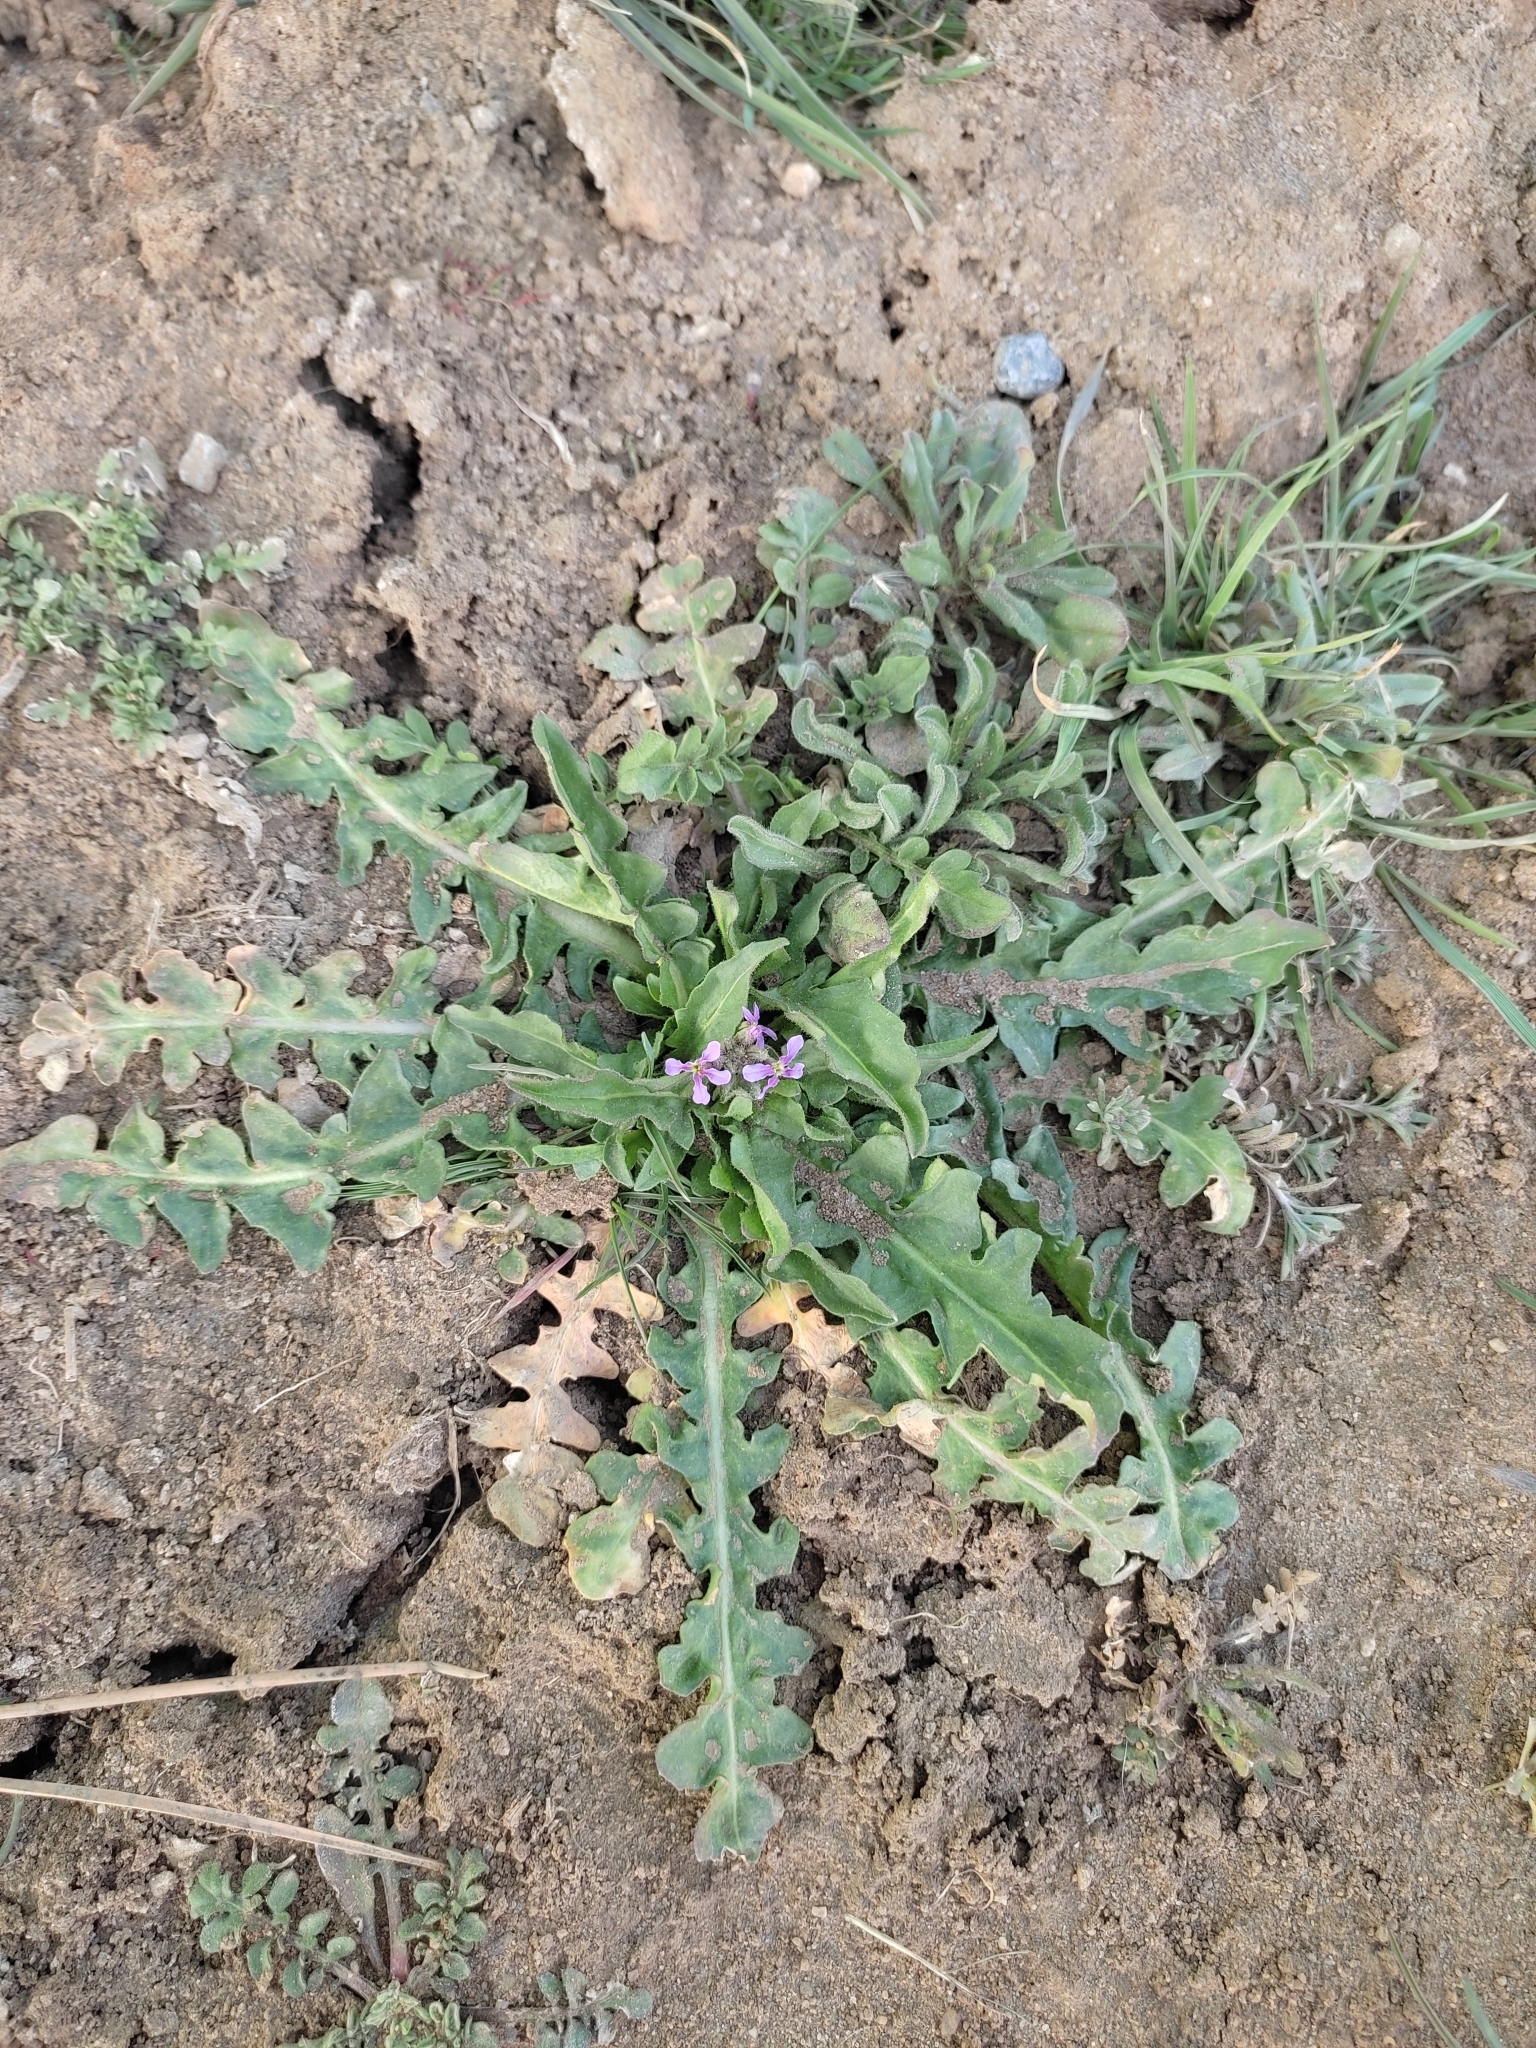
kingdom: Plantae
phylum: Tracheophyta
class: Magnoliopsida
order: Brassicales
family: Brassicaceae
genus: Chorispora
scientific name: Chorispora tenella
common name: Crossflower
